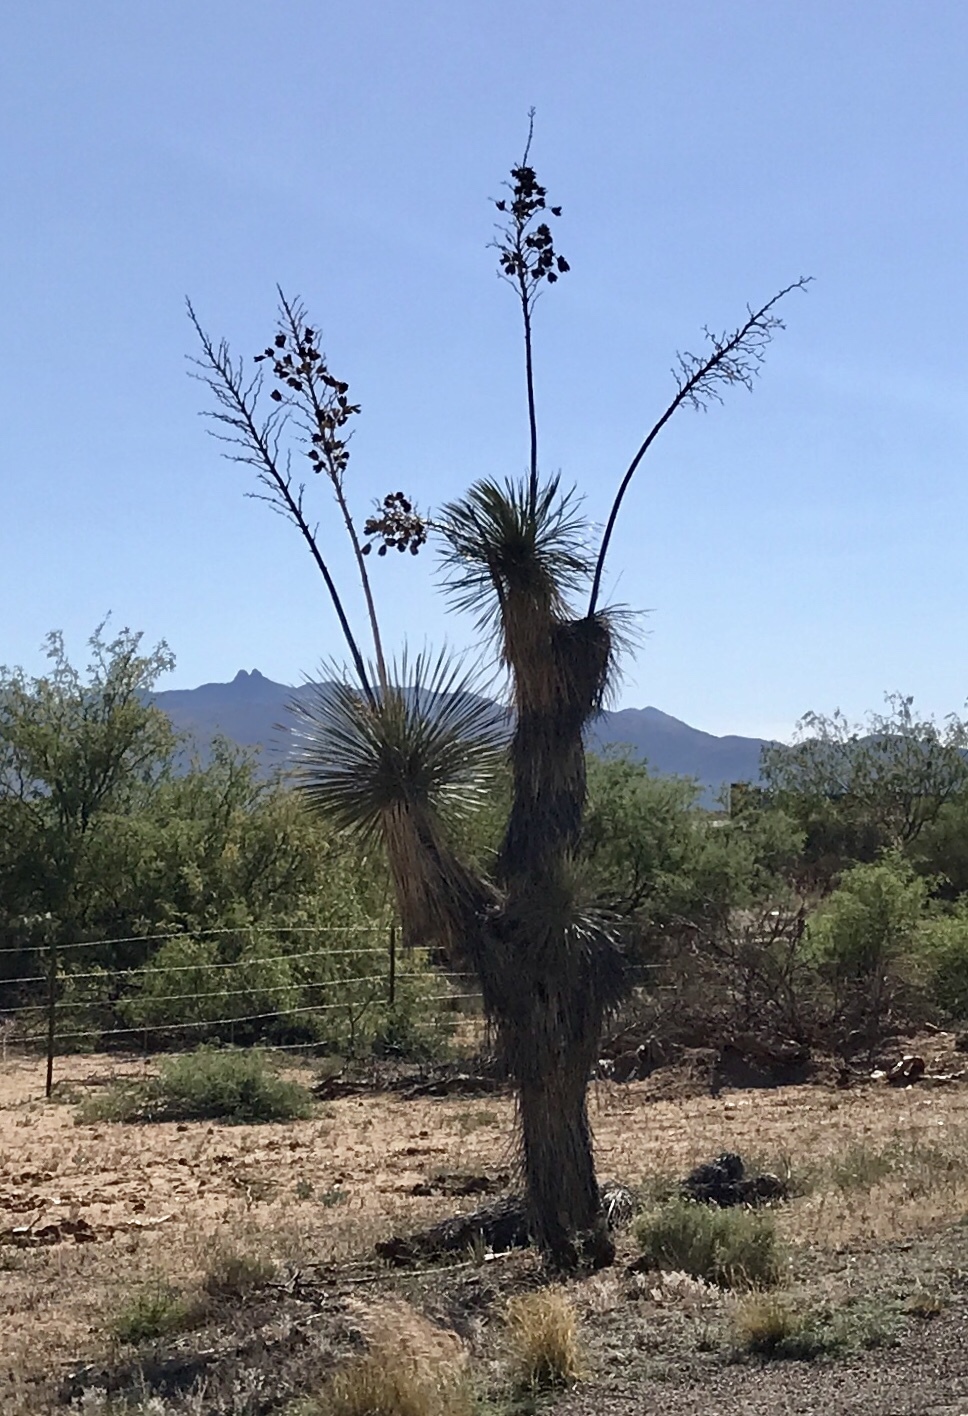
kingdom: Plantae
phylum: Tracheophyta
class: Liliopsida
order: Asparagales
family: Asparagaceae
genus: Yucca
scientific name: Yucca elata
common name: Palmella
